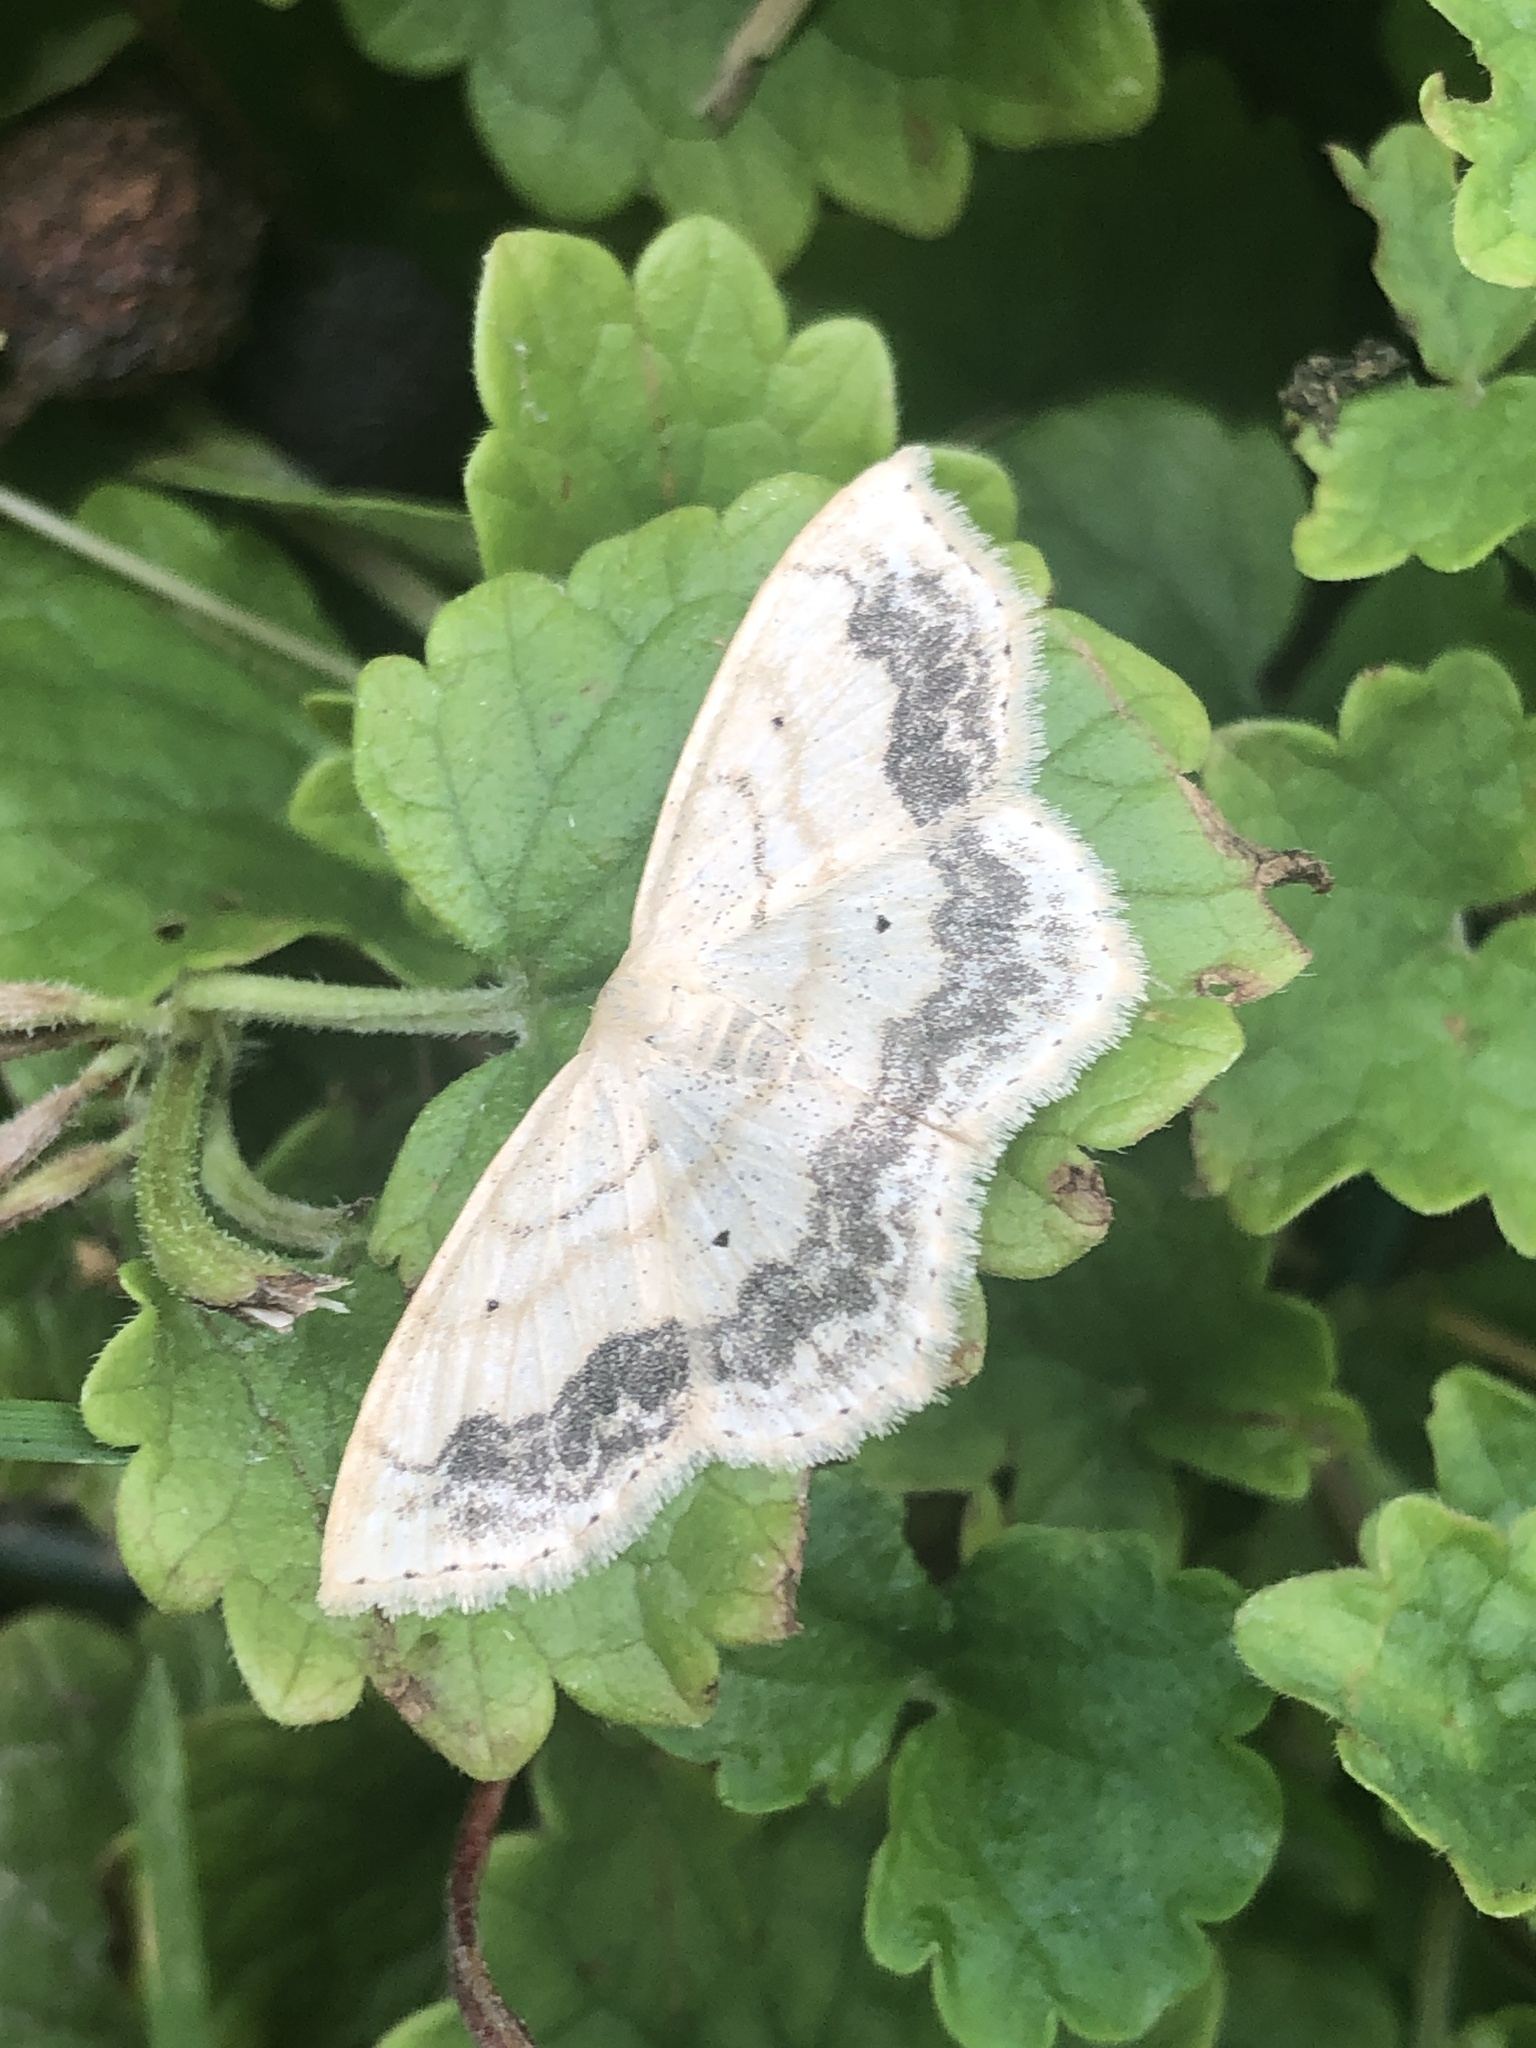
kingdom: Animalia
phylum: Arthropoda
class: Insecta
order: Lepidoptera
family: Geometridae
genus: Scopula
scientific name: Scopula limboundata
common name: Large lace border
